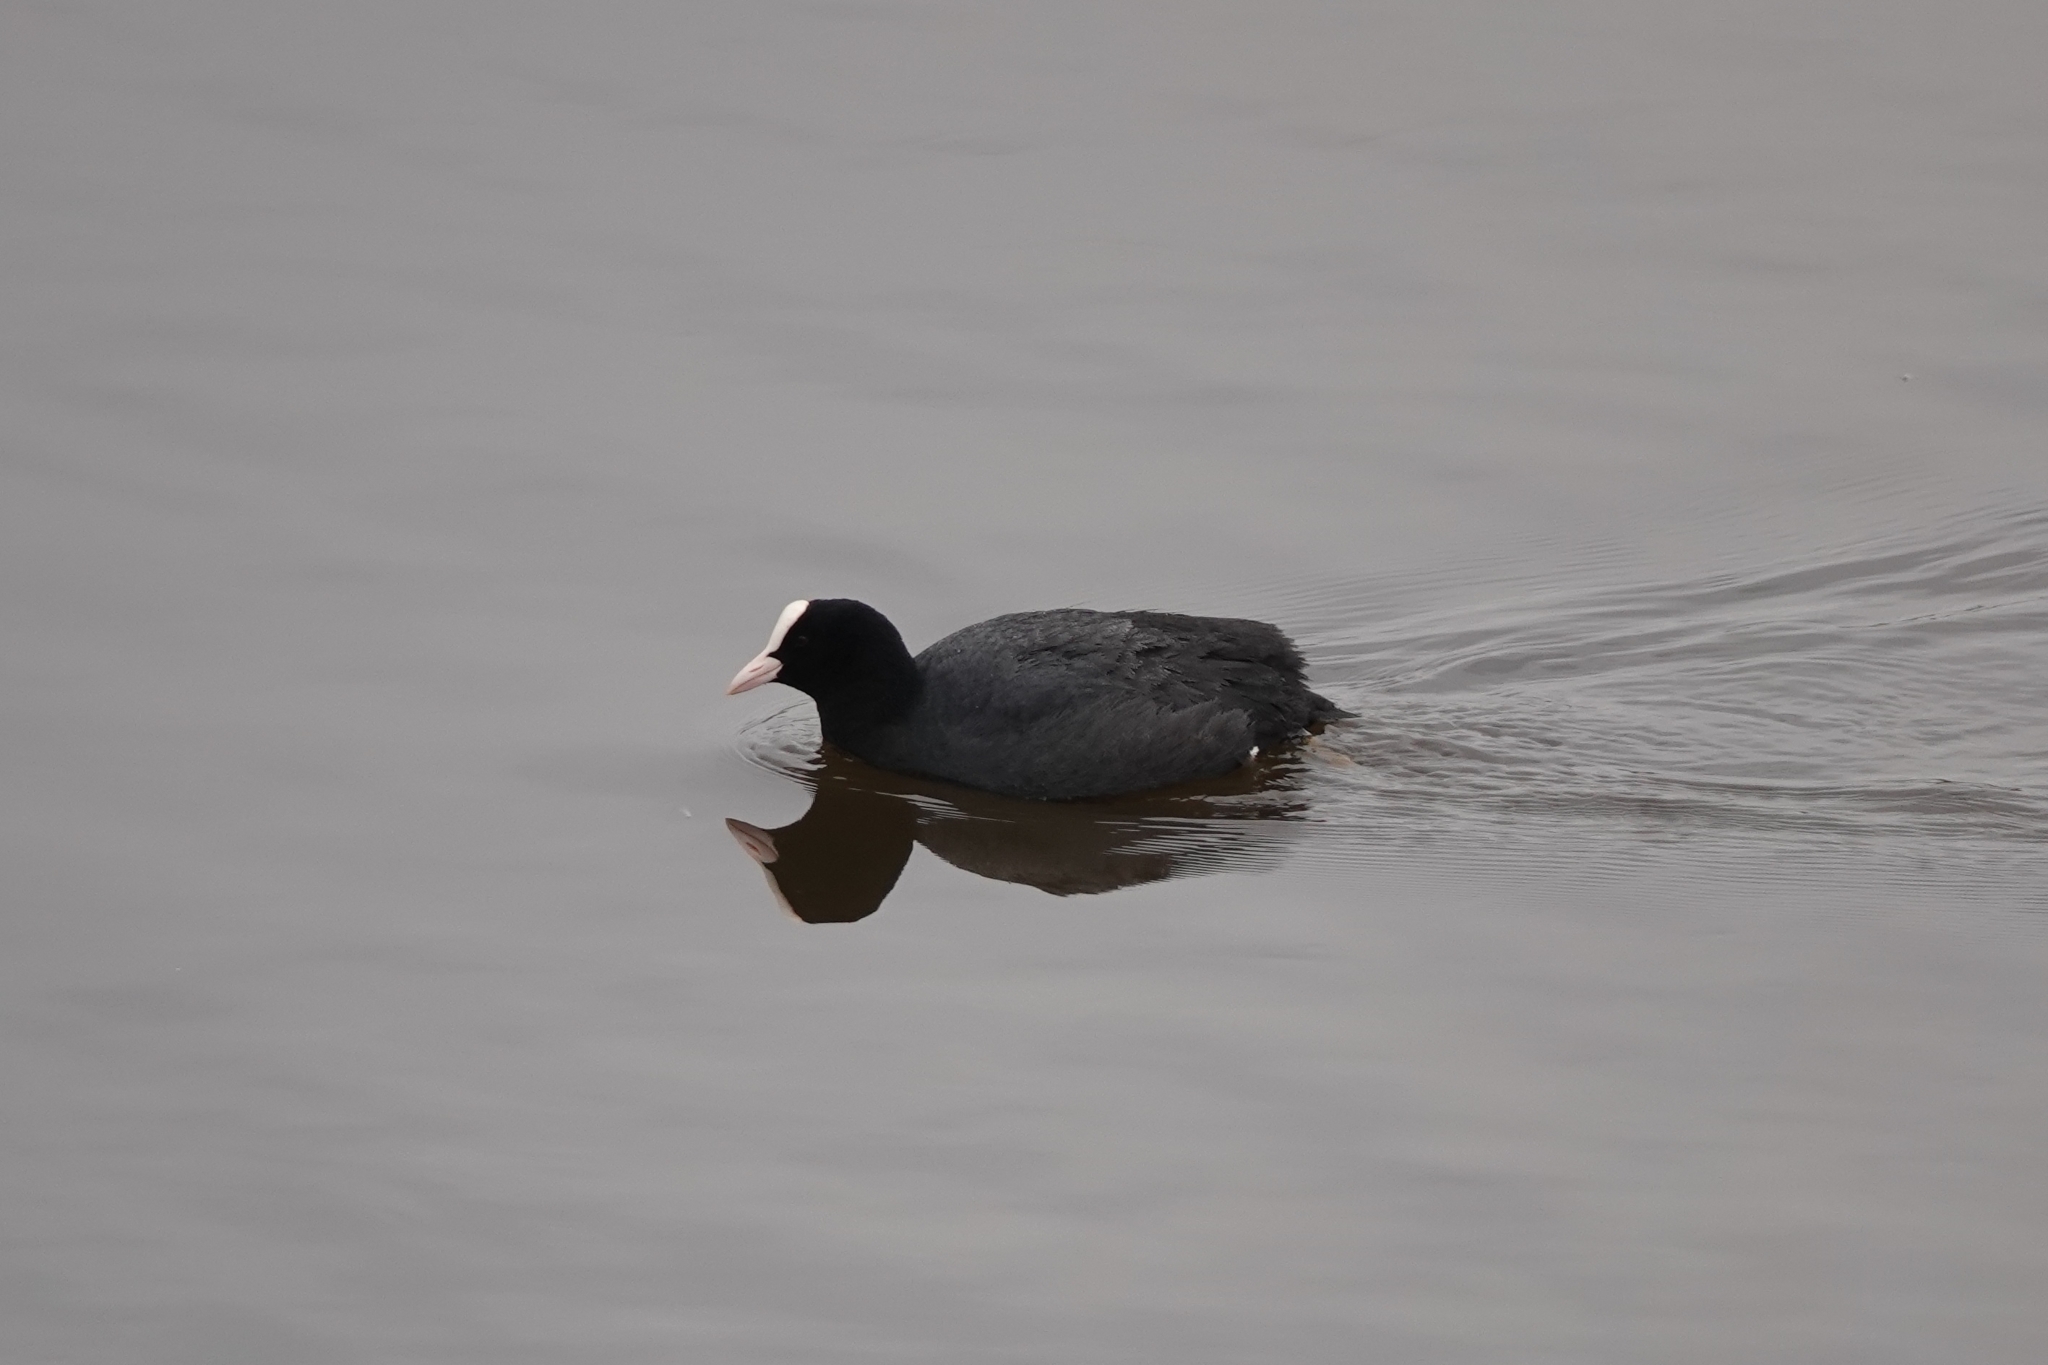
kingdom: Animalia
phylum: Chordata
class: Aves
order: Gruiformes
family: Rallidae
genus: Fulica
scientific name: Fulica atra
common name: Eurasian coot
